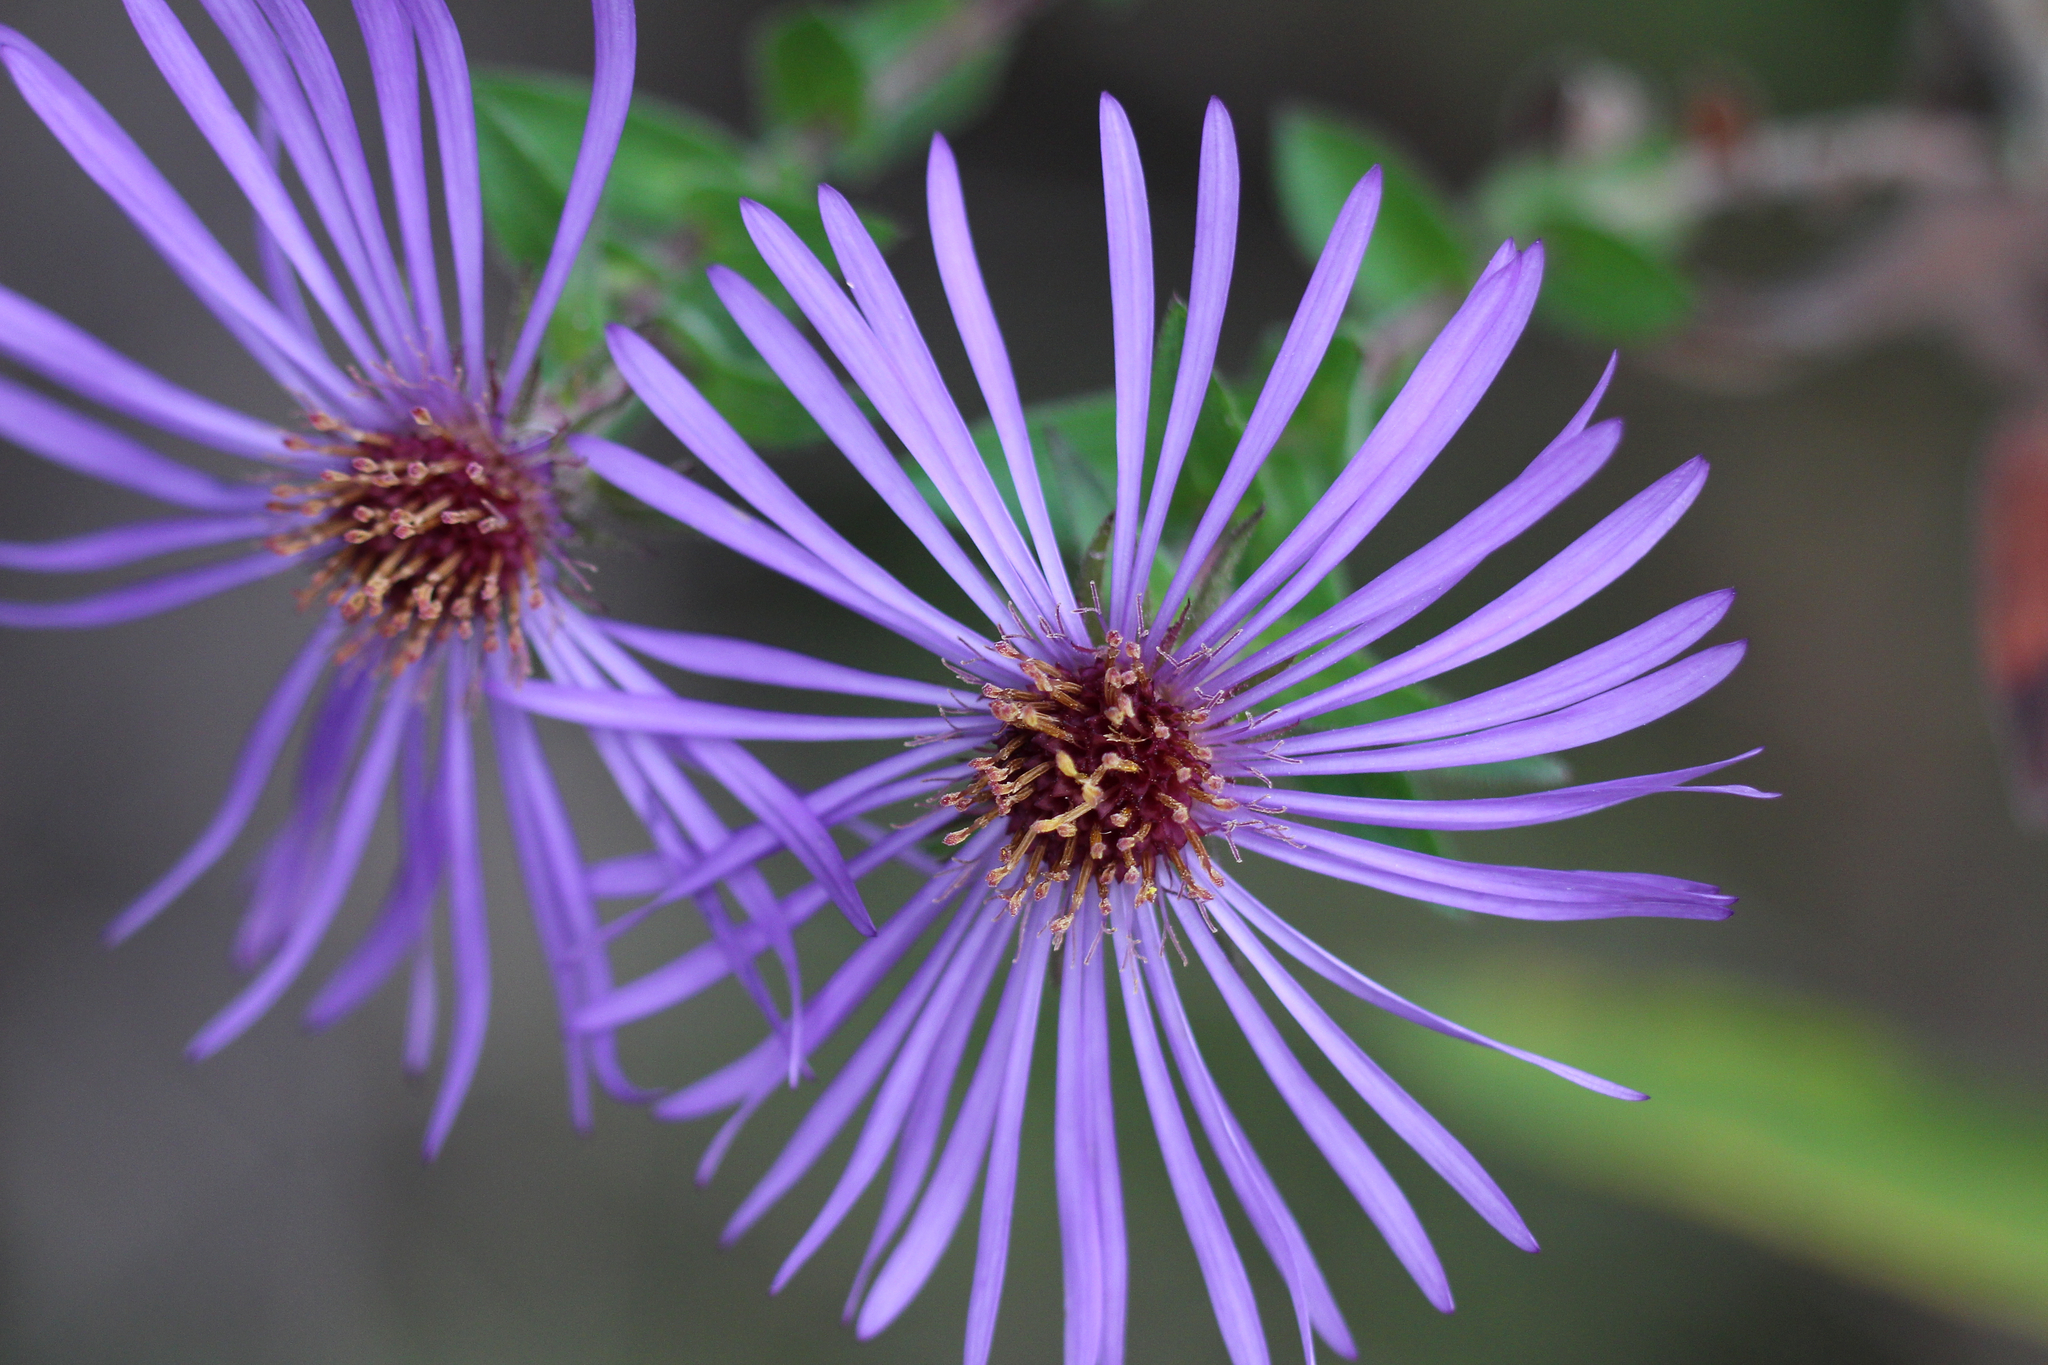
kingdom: Plantae
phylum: Tracheophyta
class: Magnoliopsida
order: Asterales
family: Asteraceae
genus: Symphyotrichum
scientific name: Symphyotrichum novae-angliae
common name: Michaelmas daisy
